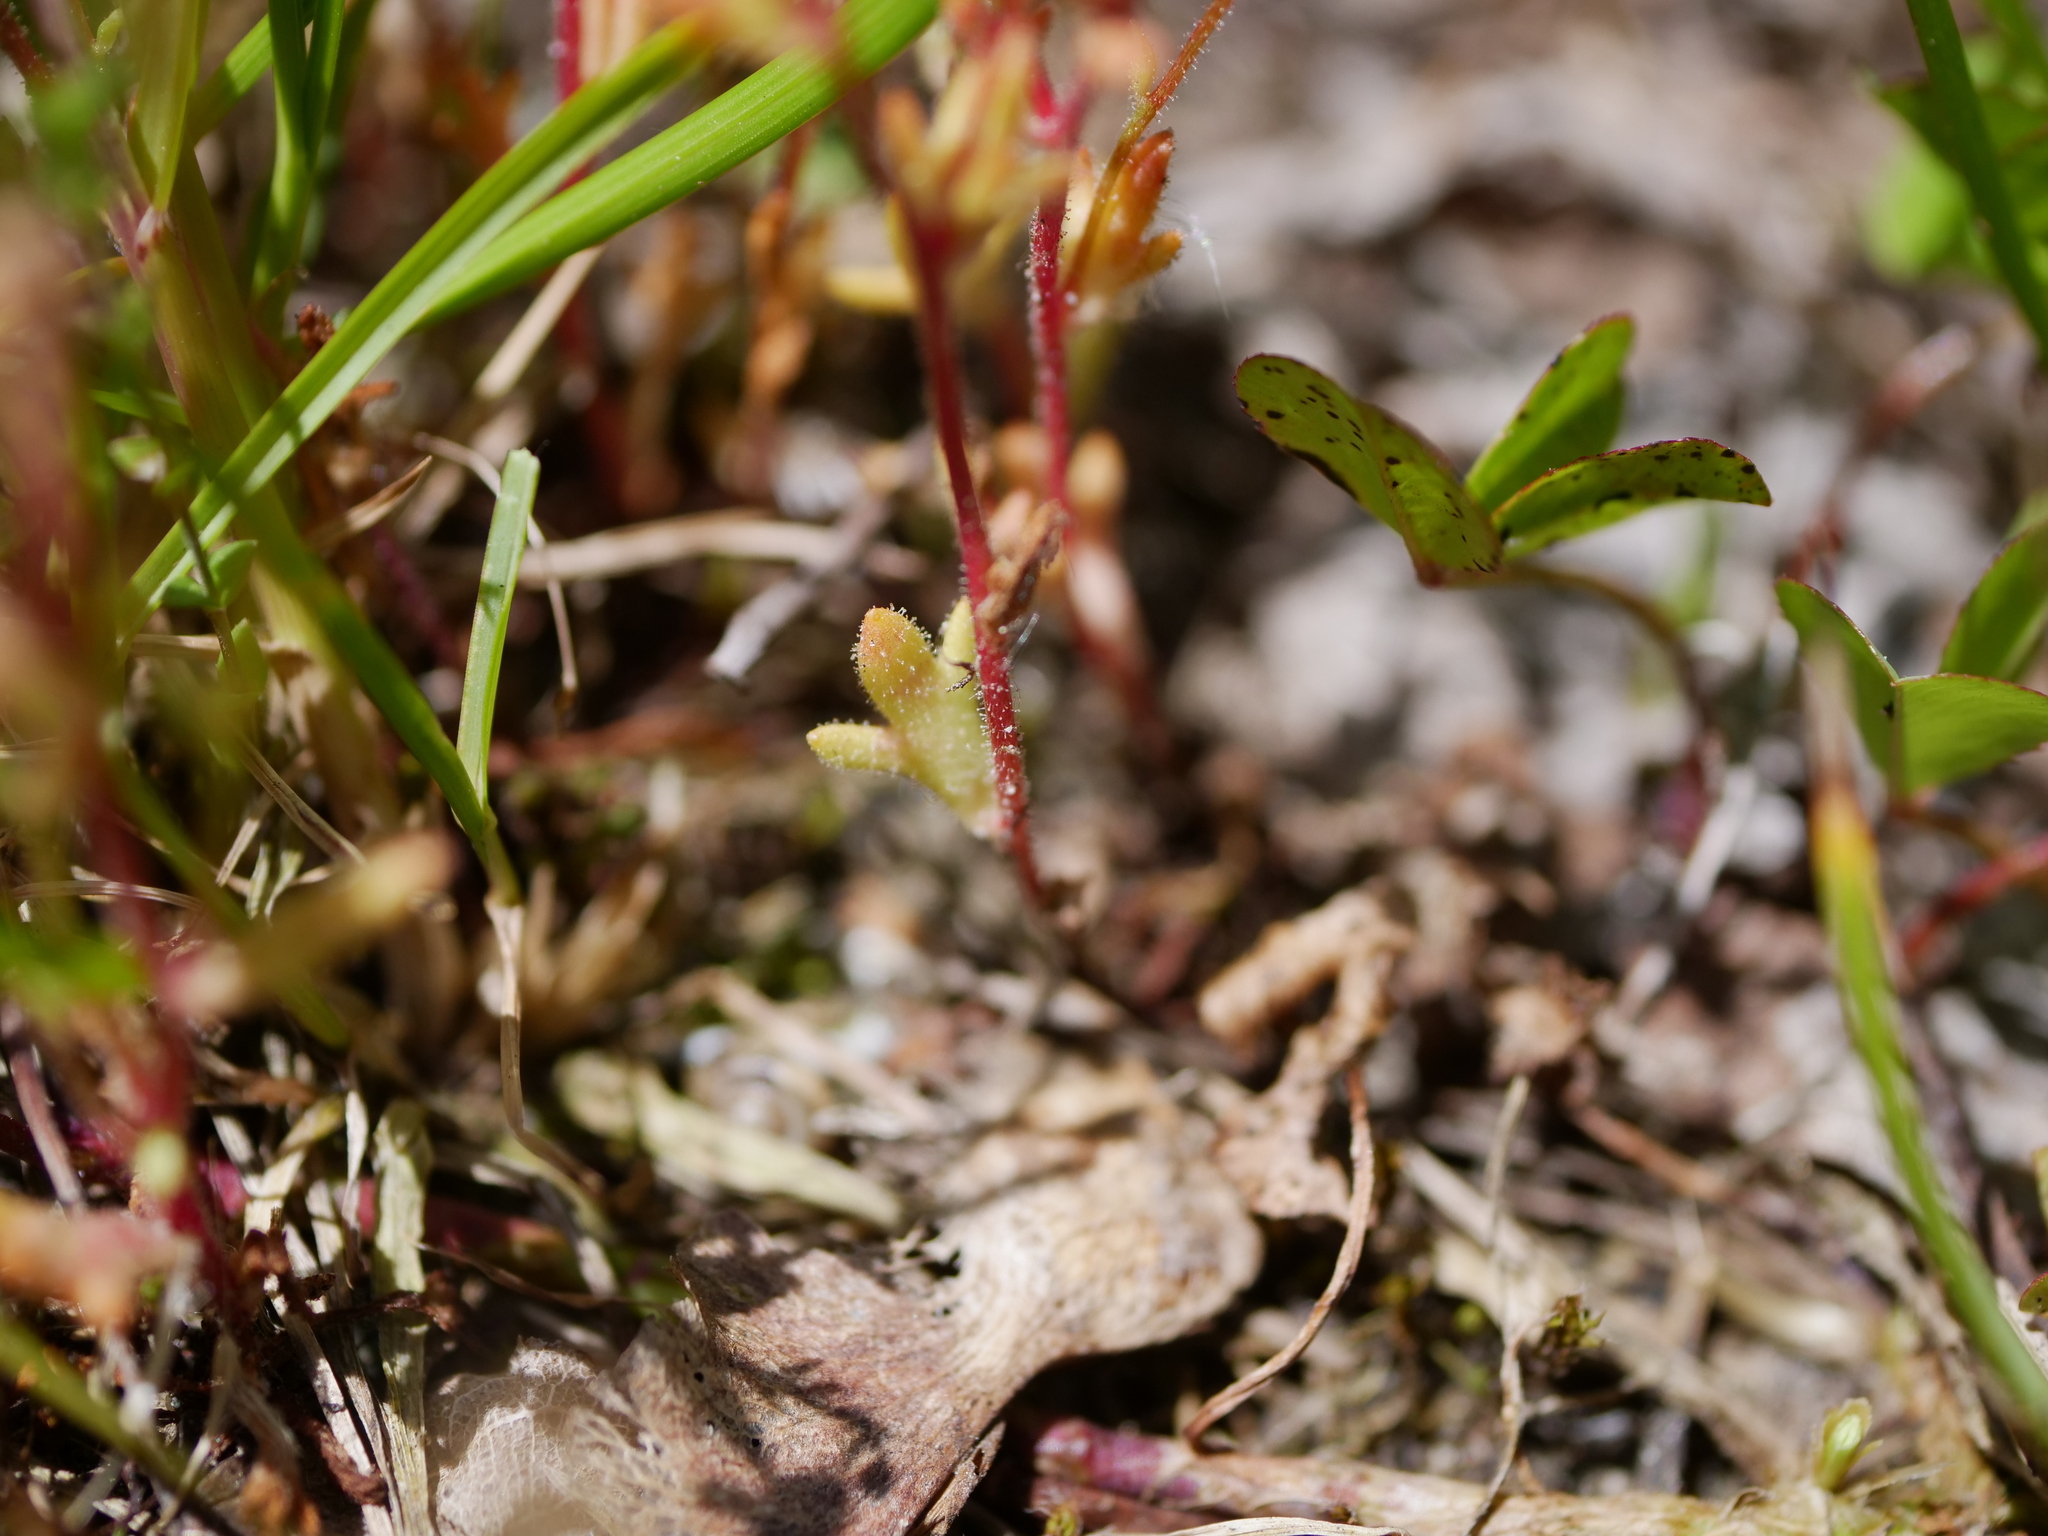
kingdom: Plantae
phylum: Tracheophyta
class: Magnoliopsida
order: Saxifragales
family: Saxifragaceae
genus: Saxifraga
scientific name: Saxifraga tridactylites
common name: Rue-leaved saxifrage
